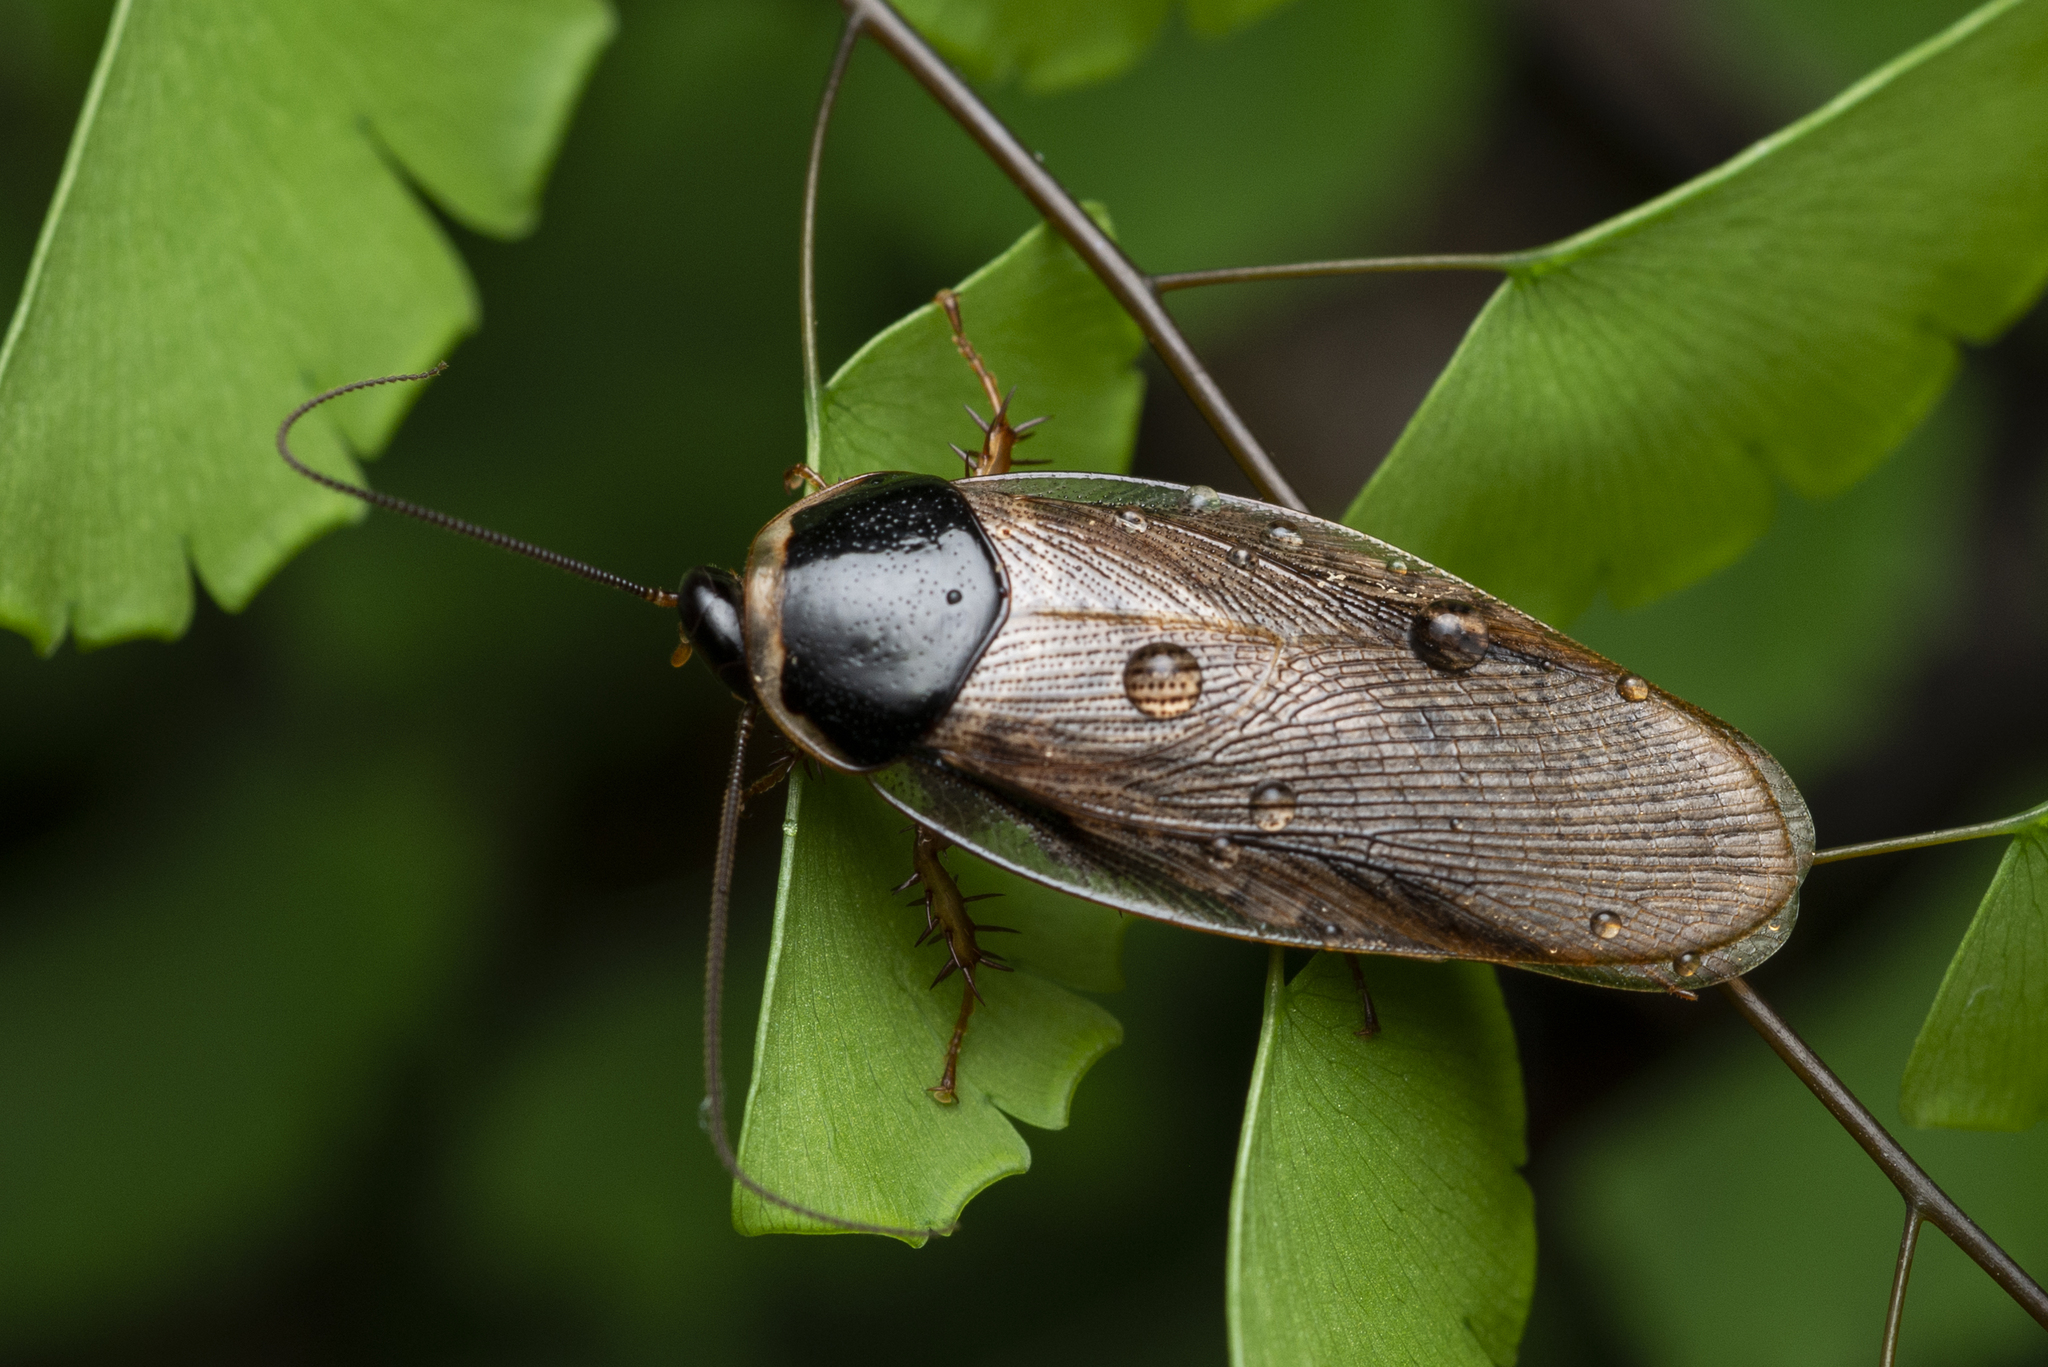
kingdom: Animalia
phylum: Arthropoda
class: Insecta
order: Blattodea
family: Blaberidae
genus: Pycnoscelus
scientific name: Pycnoscelus indicus
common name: Burrowing cockroach
